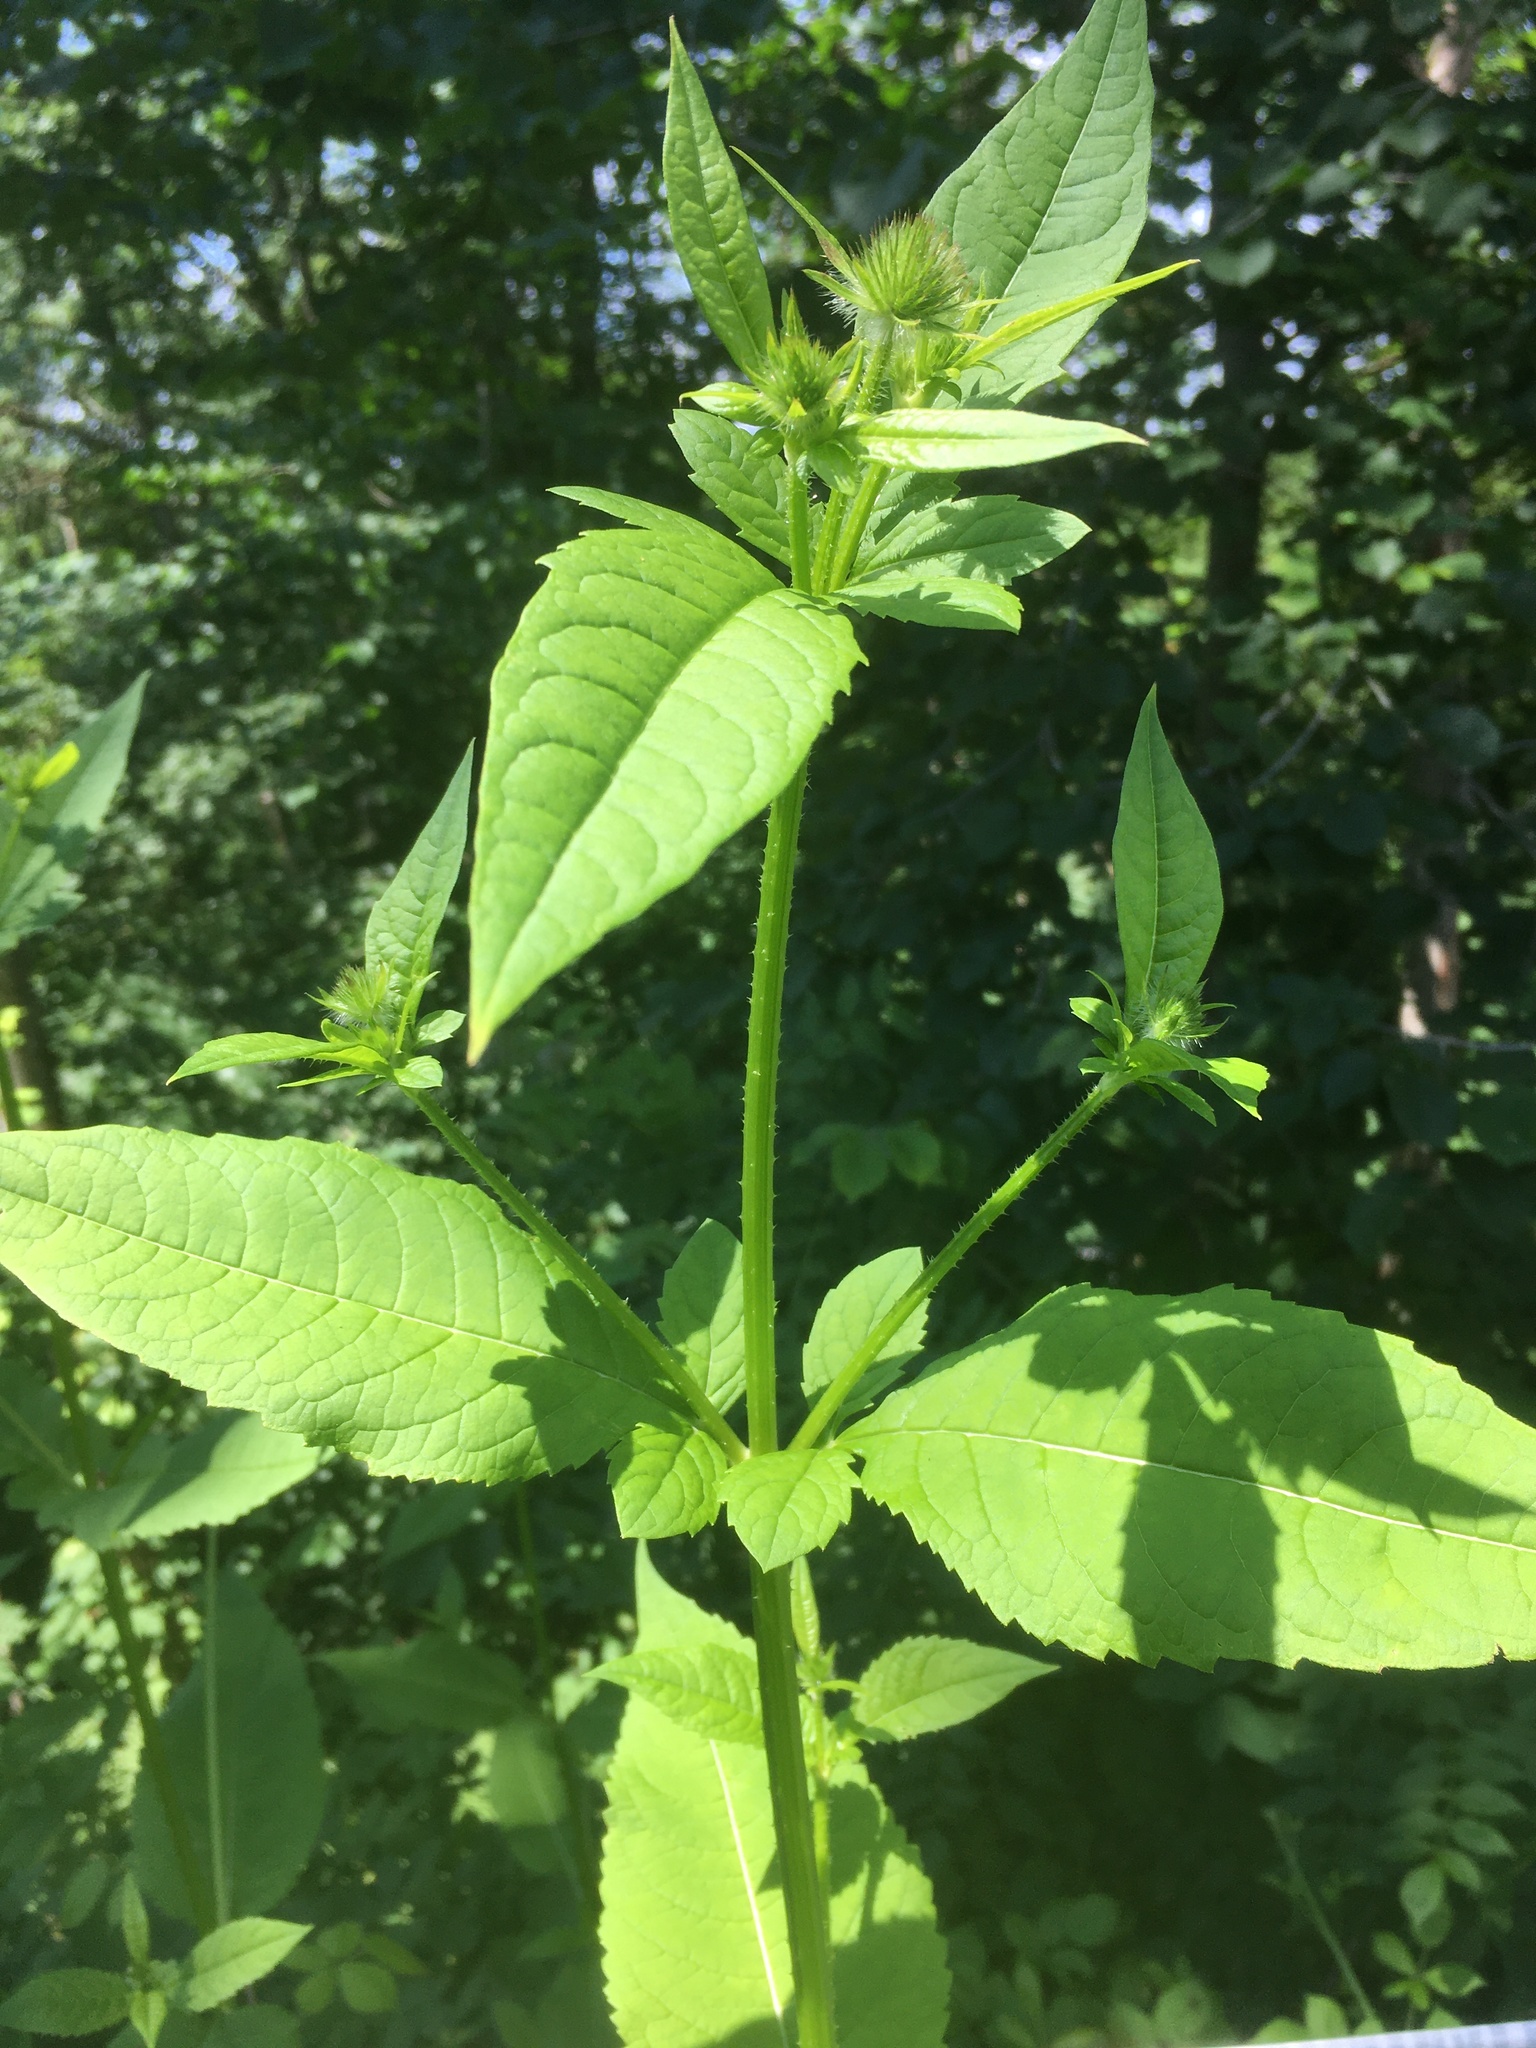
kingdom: Plantae
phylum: Tracheophyta
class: Magnoliopsida
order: Dipsacales
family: Caprifoliaceae
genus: Dipsacus
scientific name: Dipsacus pilosus
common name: Small teasel
